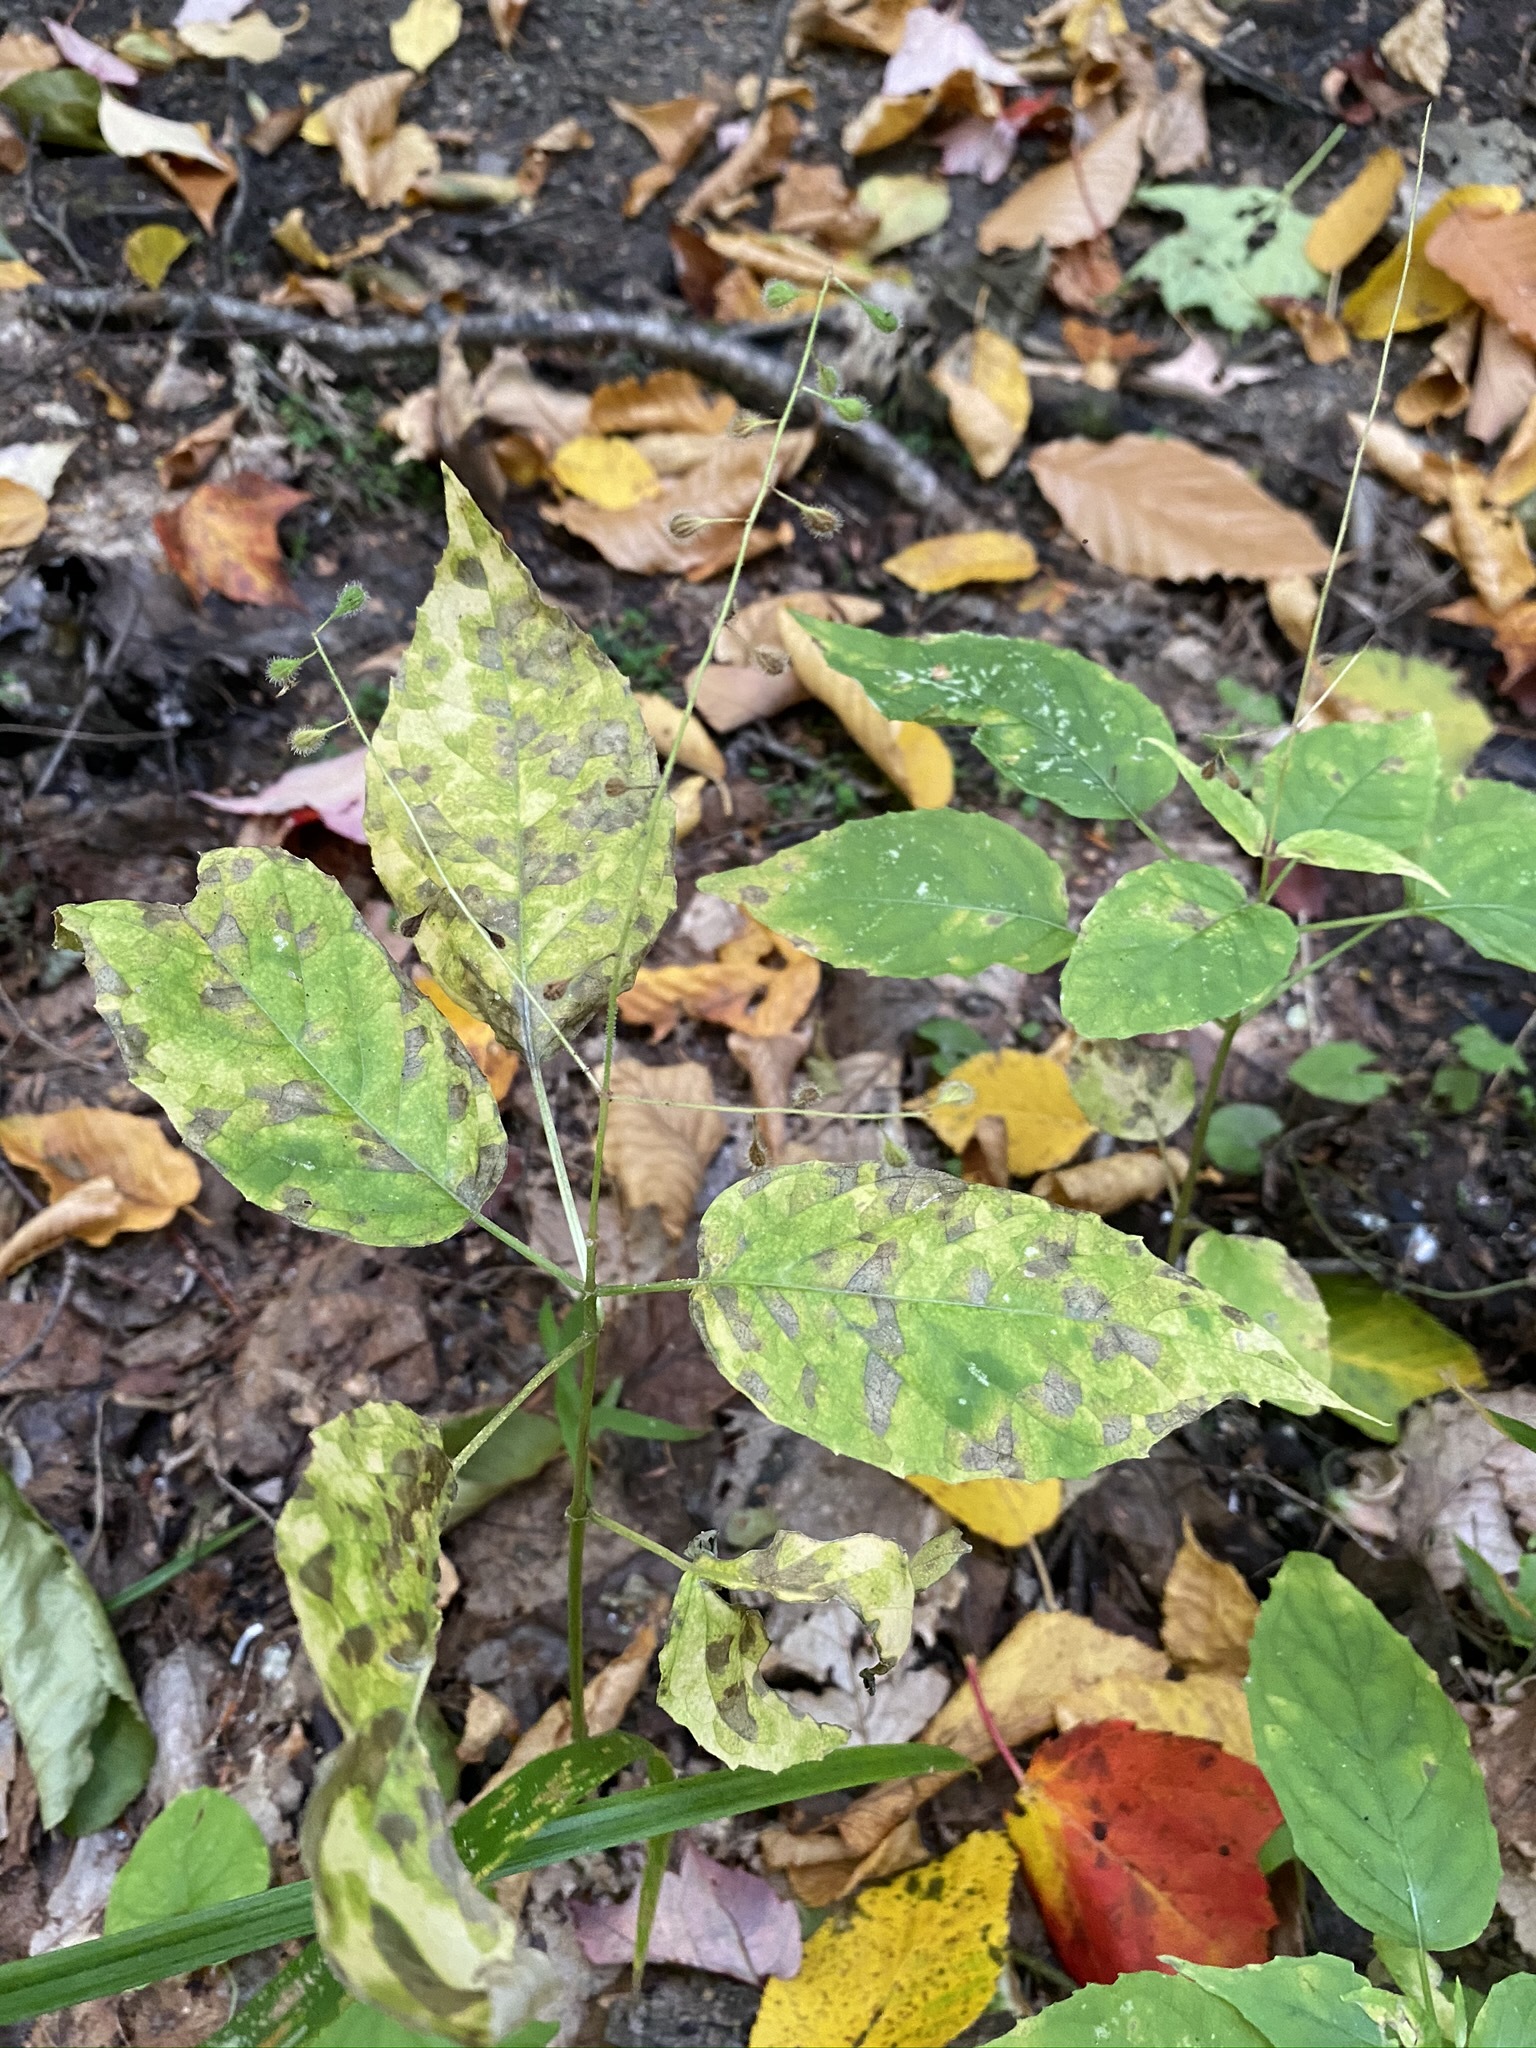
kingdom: Plantae
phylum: Tracheophyta
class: Magnoliopsida
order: Myrtales
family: Onagraceae
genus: Circaea
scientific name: Circaea canadensis
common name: Broad-leaved enchanter's nightshade
